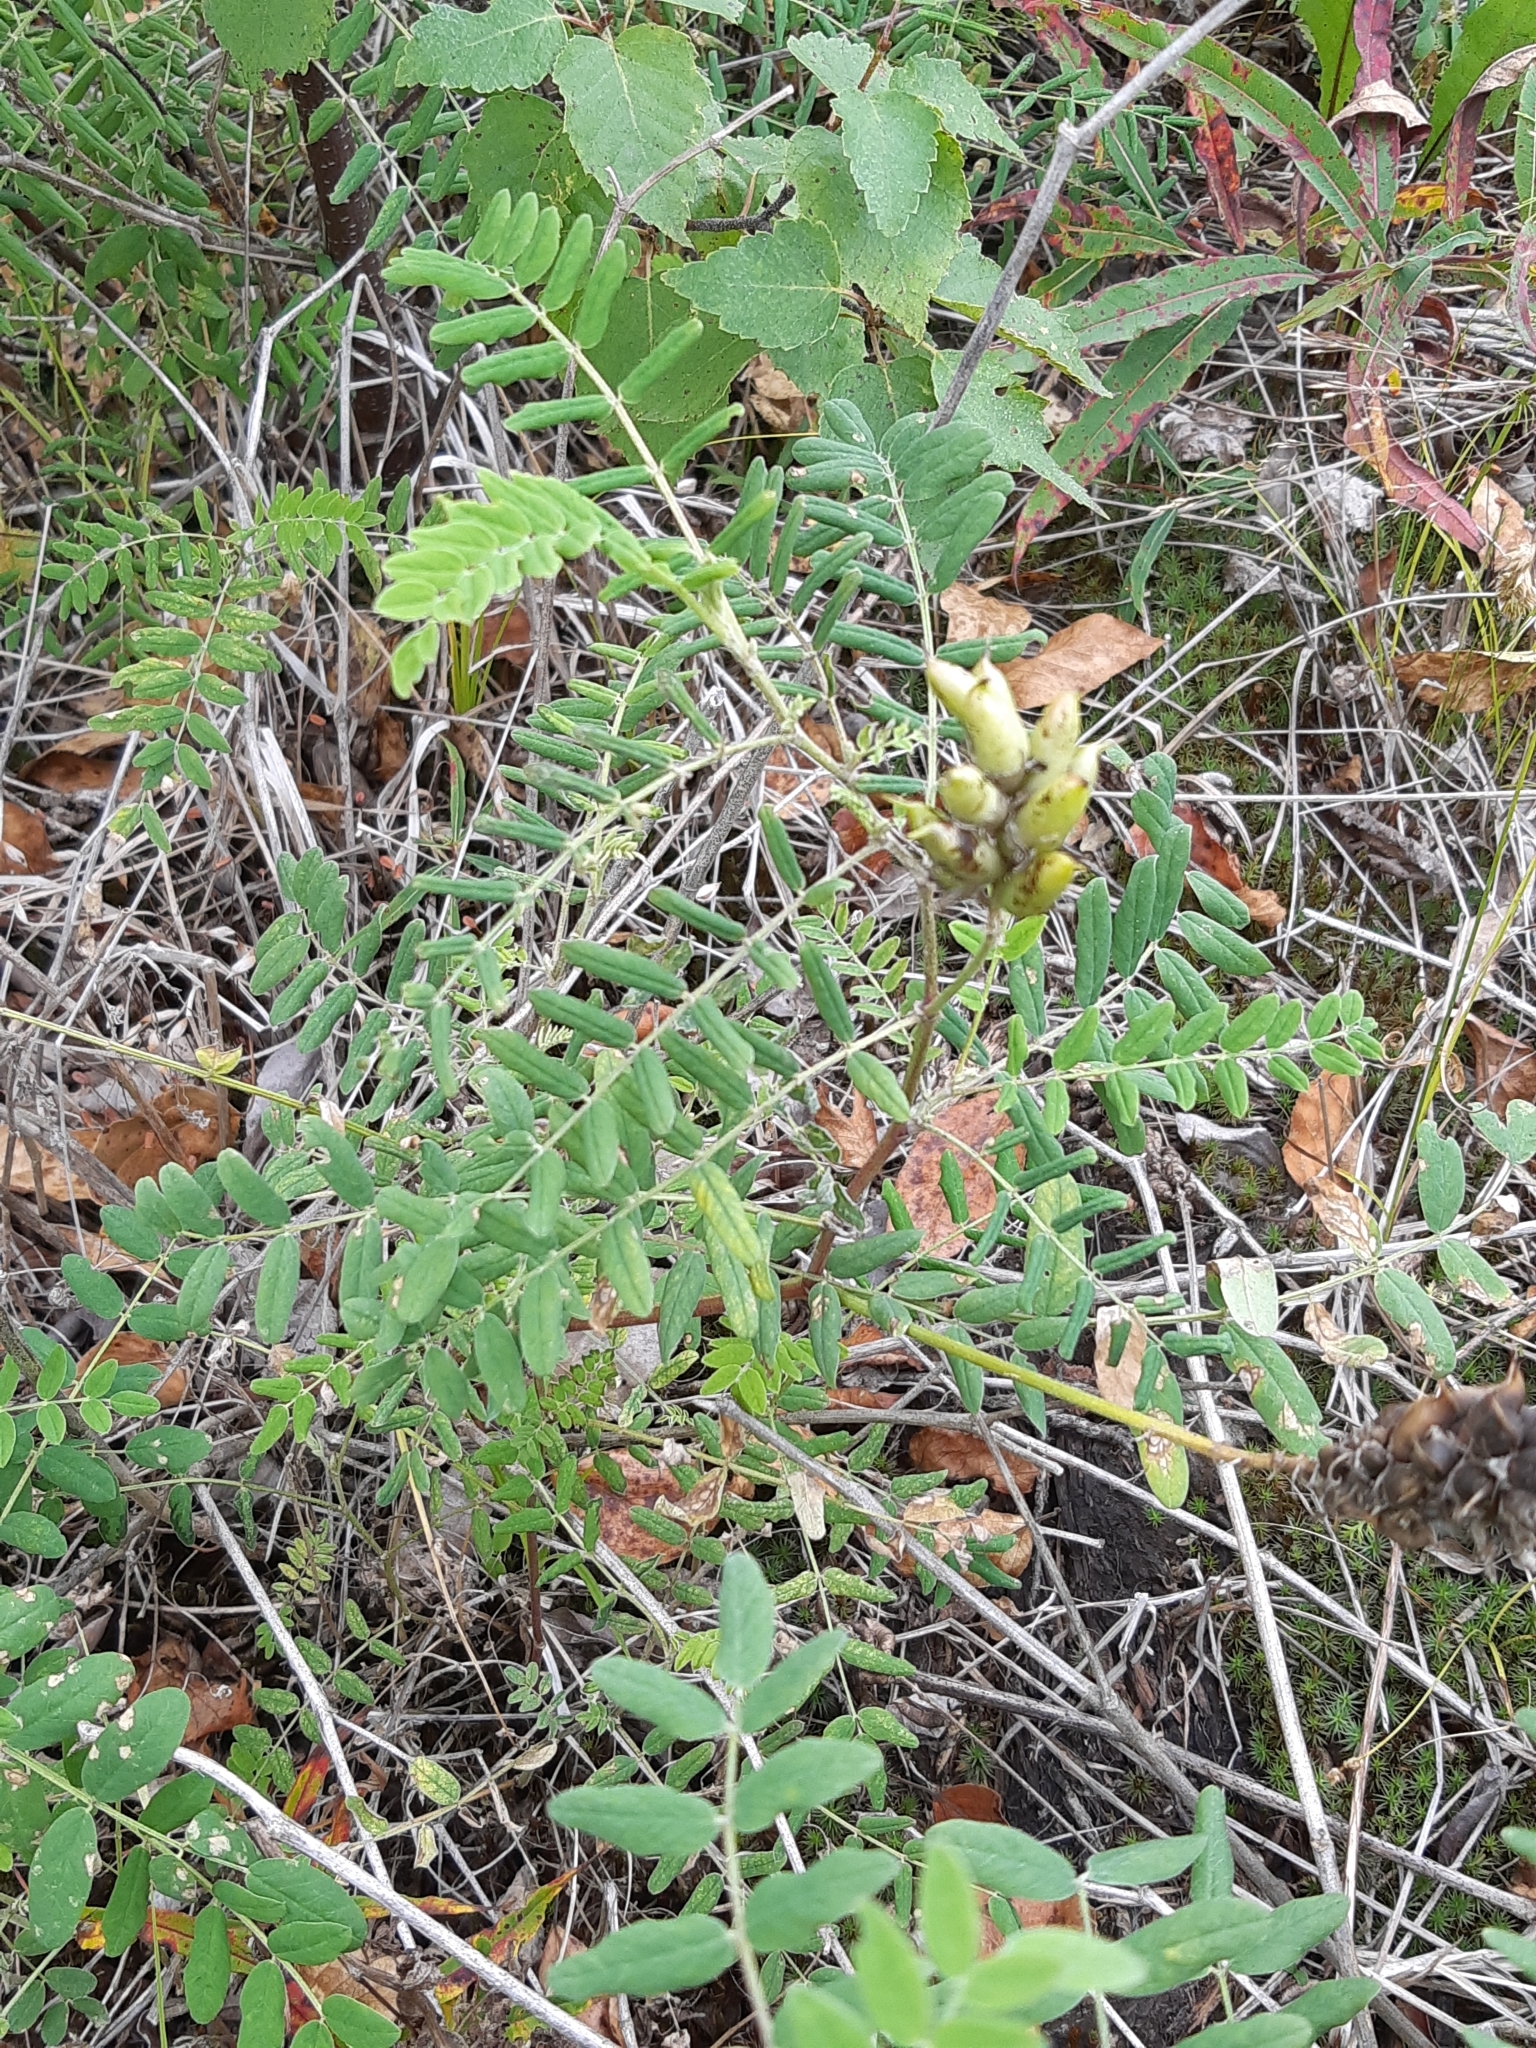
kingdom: Plantae
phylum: Tracheophyta
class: Magnoliopsida
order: Fabales
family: Fabaceae
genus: Astragalus
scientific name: Astragalus canadensis
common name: Canada milk-vetch
